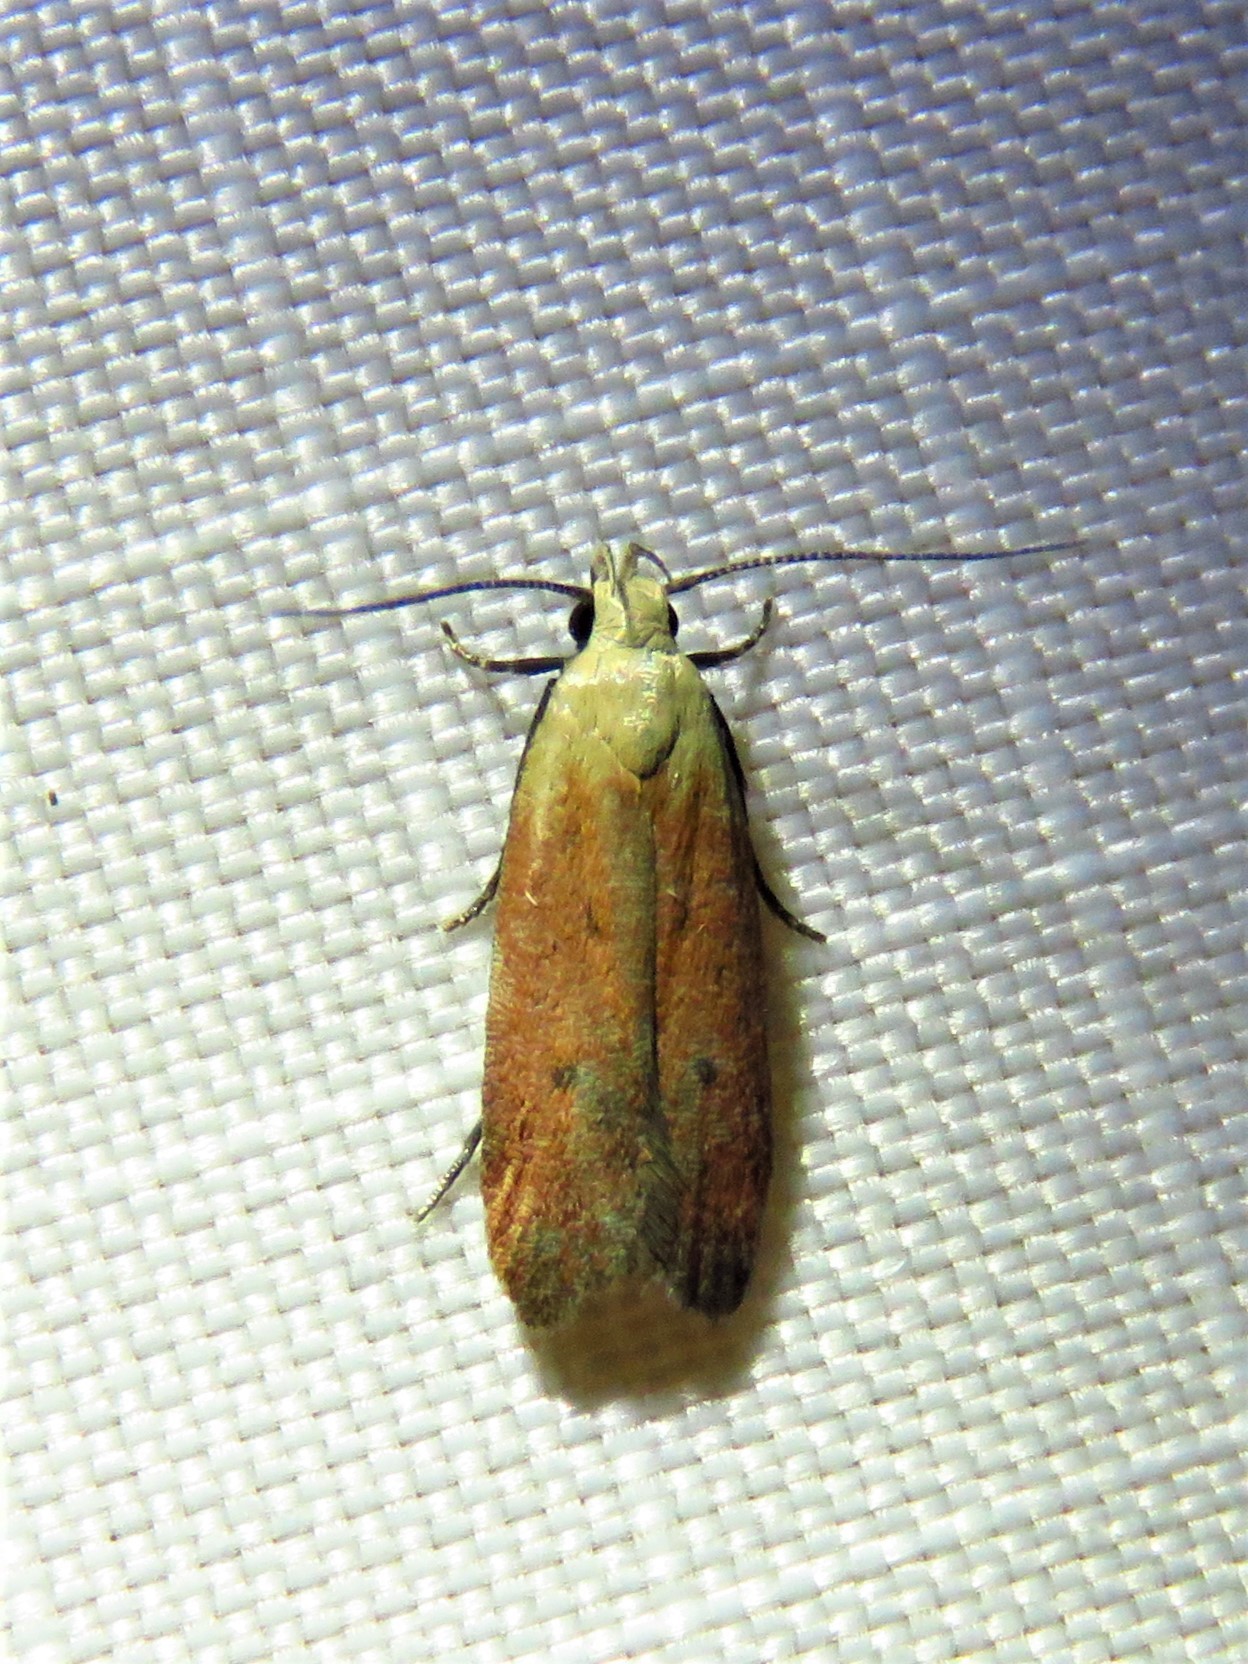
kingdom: Animalia
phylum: Arthropoda
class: Insecta
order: Lepidoptera
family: Gelechiidae
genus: Anacampsis
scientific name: Anacampsis fullonella
